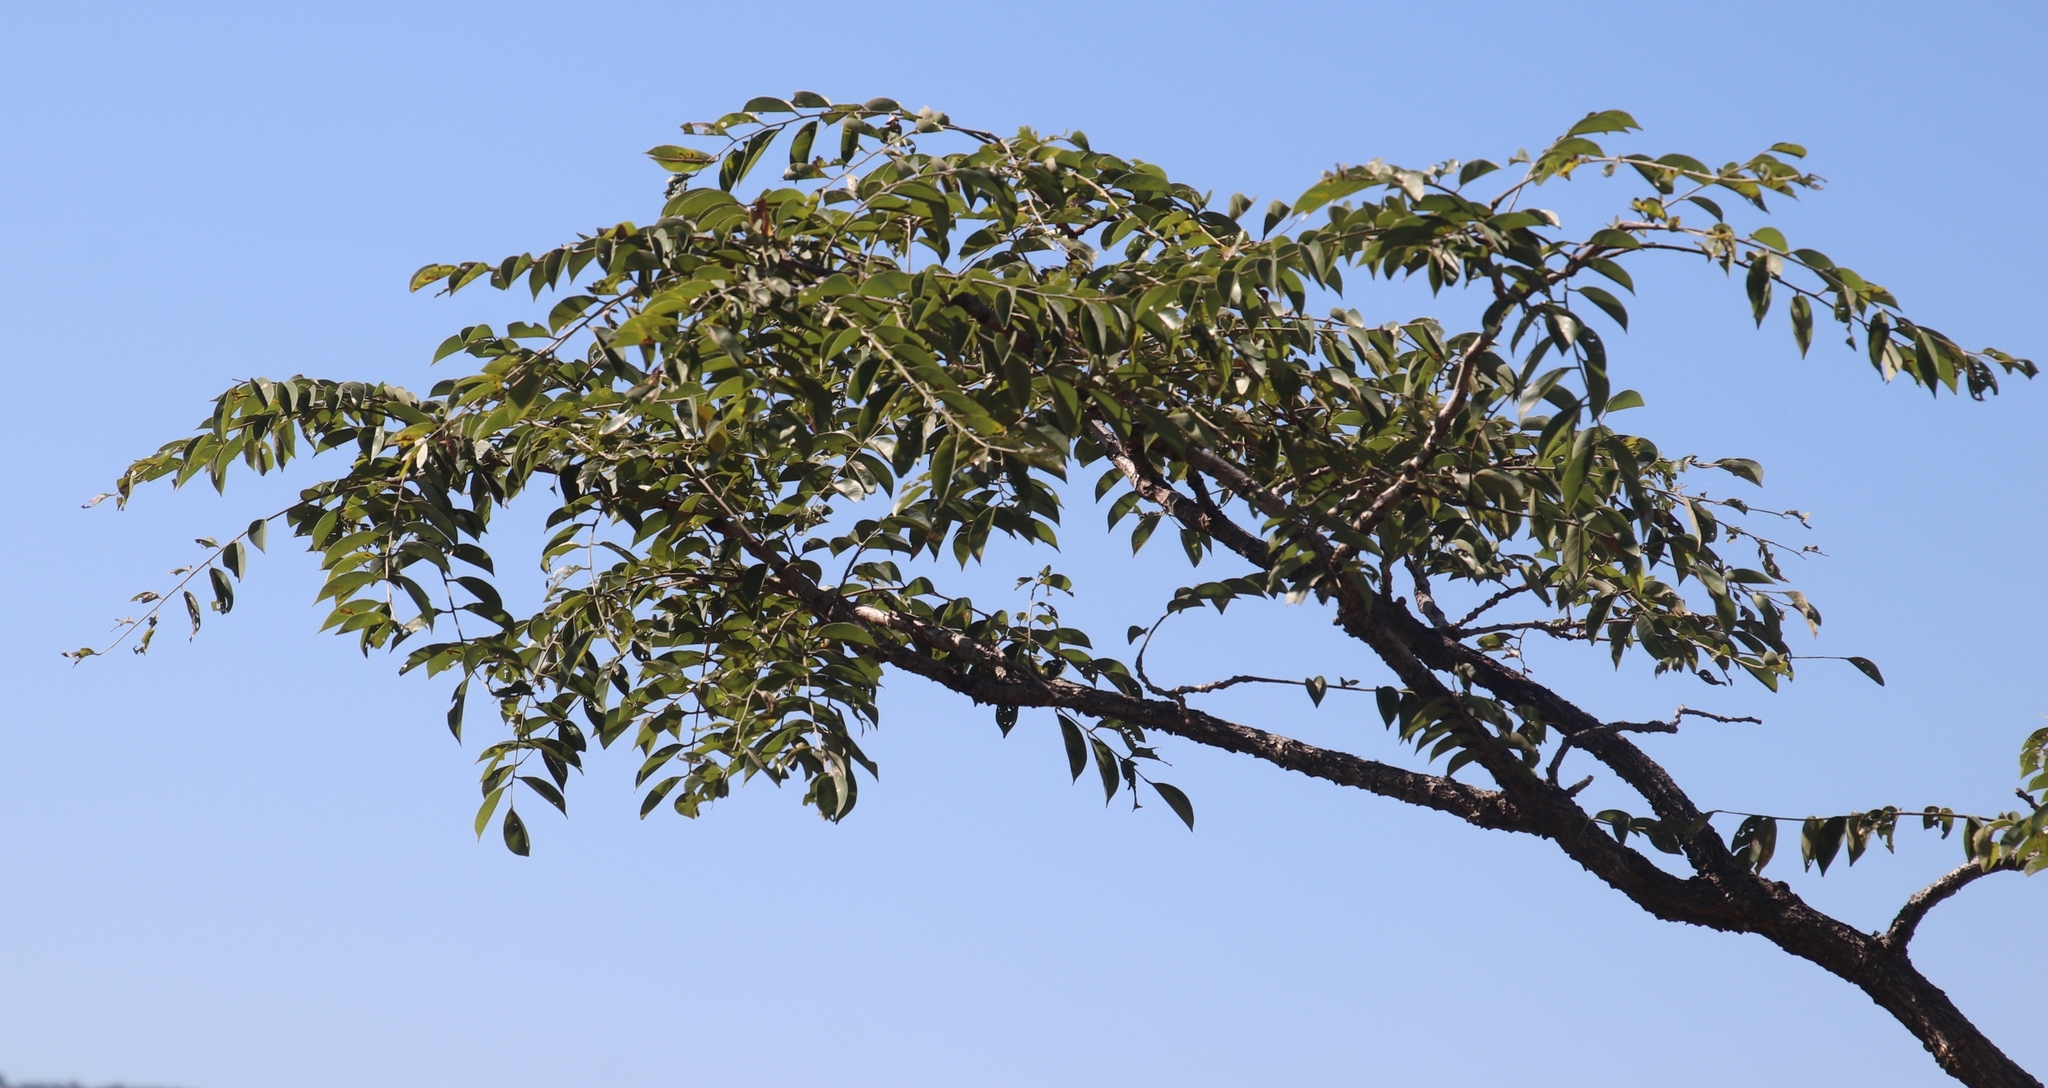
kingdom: Plantae
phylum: Tracheophyta
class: Magnoliopsida
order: Fabales
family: Fabaceae
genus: Pterocarpus
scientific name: Pterocarpus angolensis
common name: Bloodwood tree
